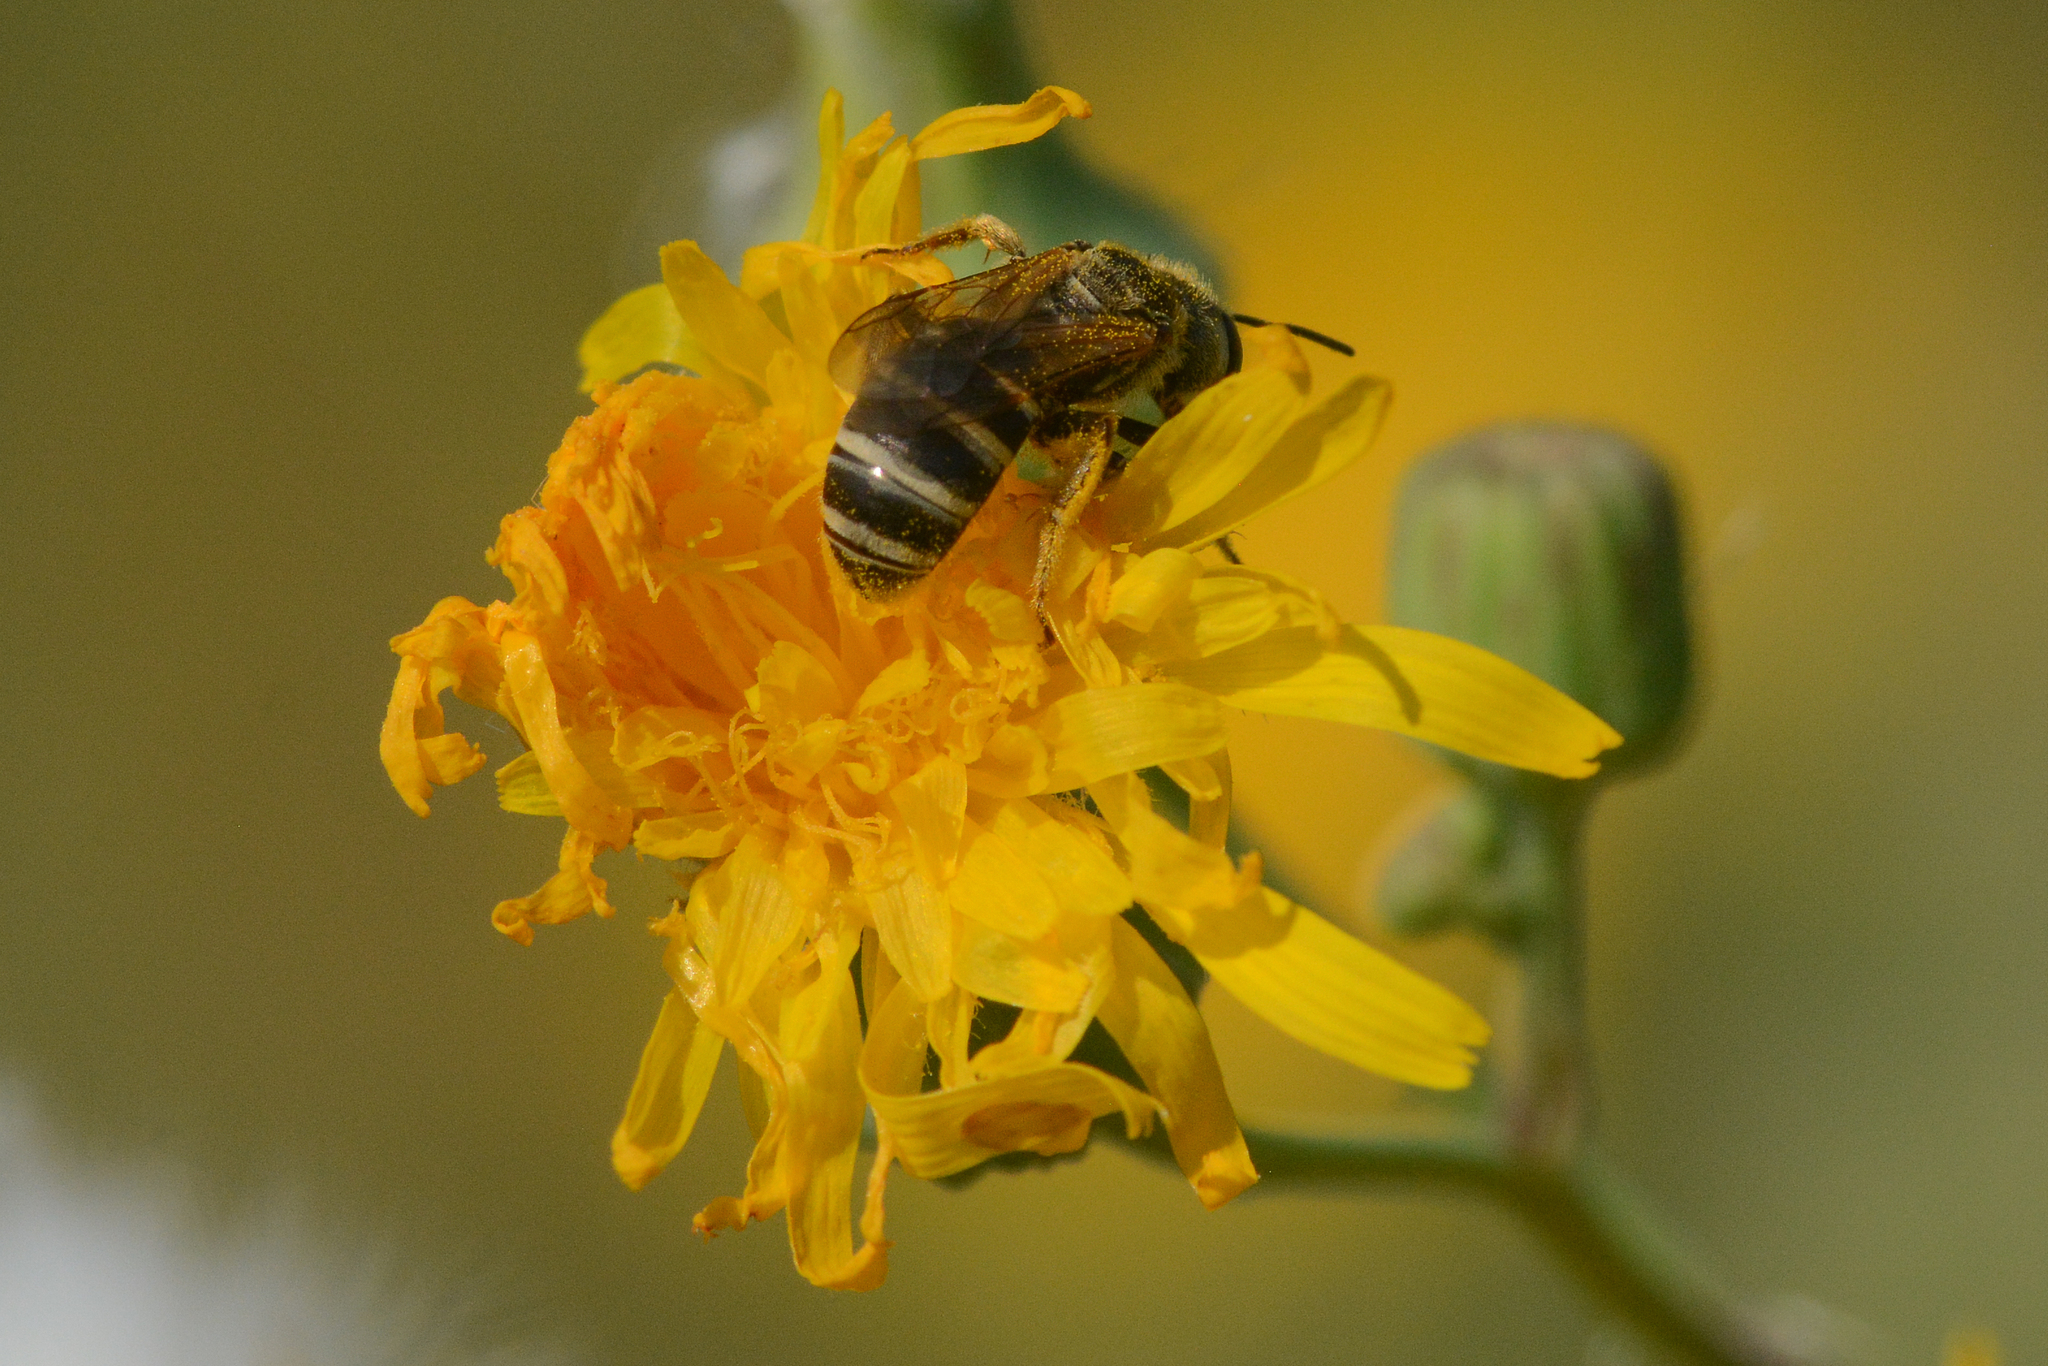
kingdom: Animalia
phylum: Arthropoda
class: Insecta
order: Hymenoptera
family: Halictidae
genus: Halictus
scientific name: Halictus ligatus
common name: Ligated furrow bee
